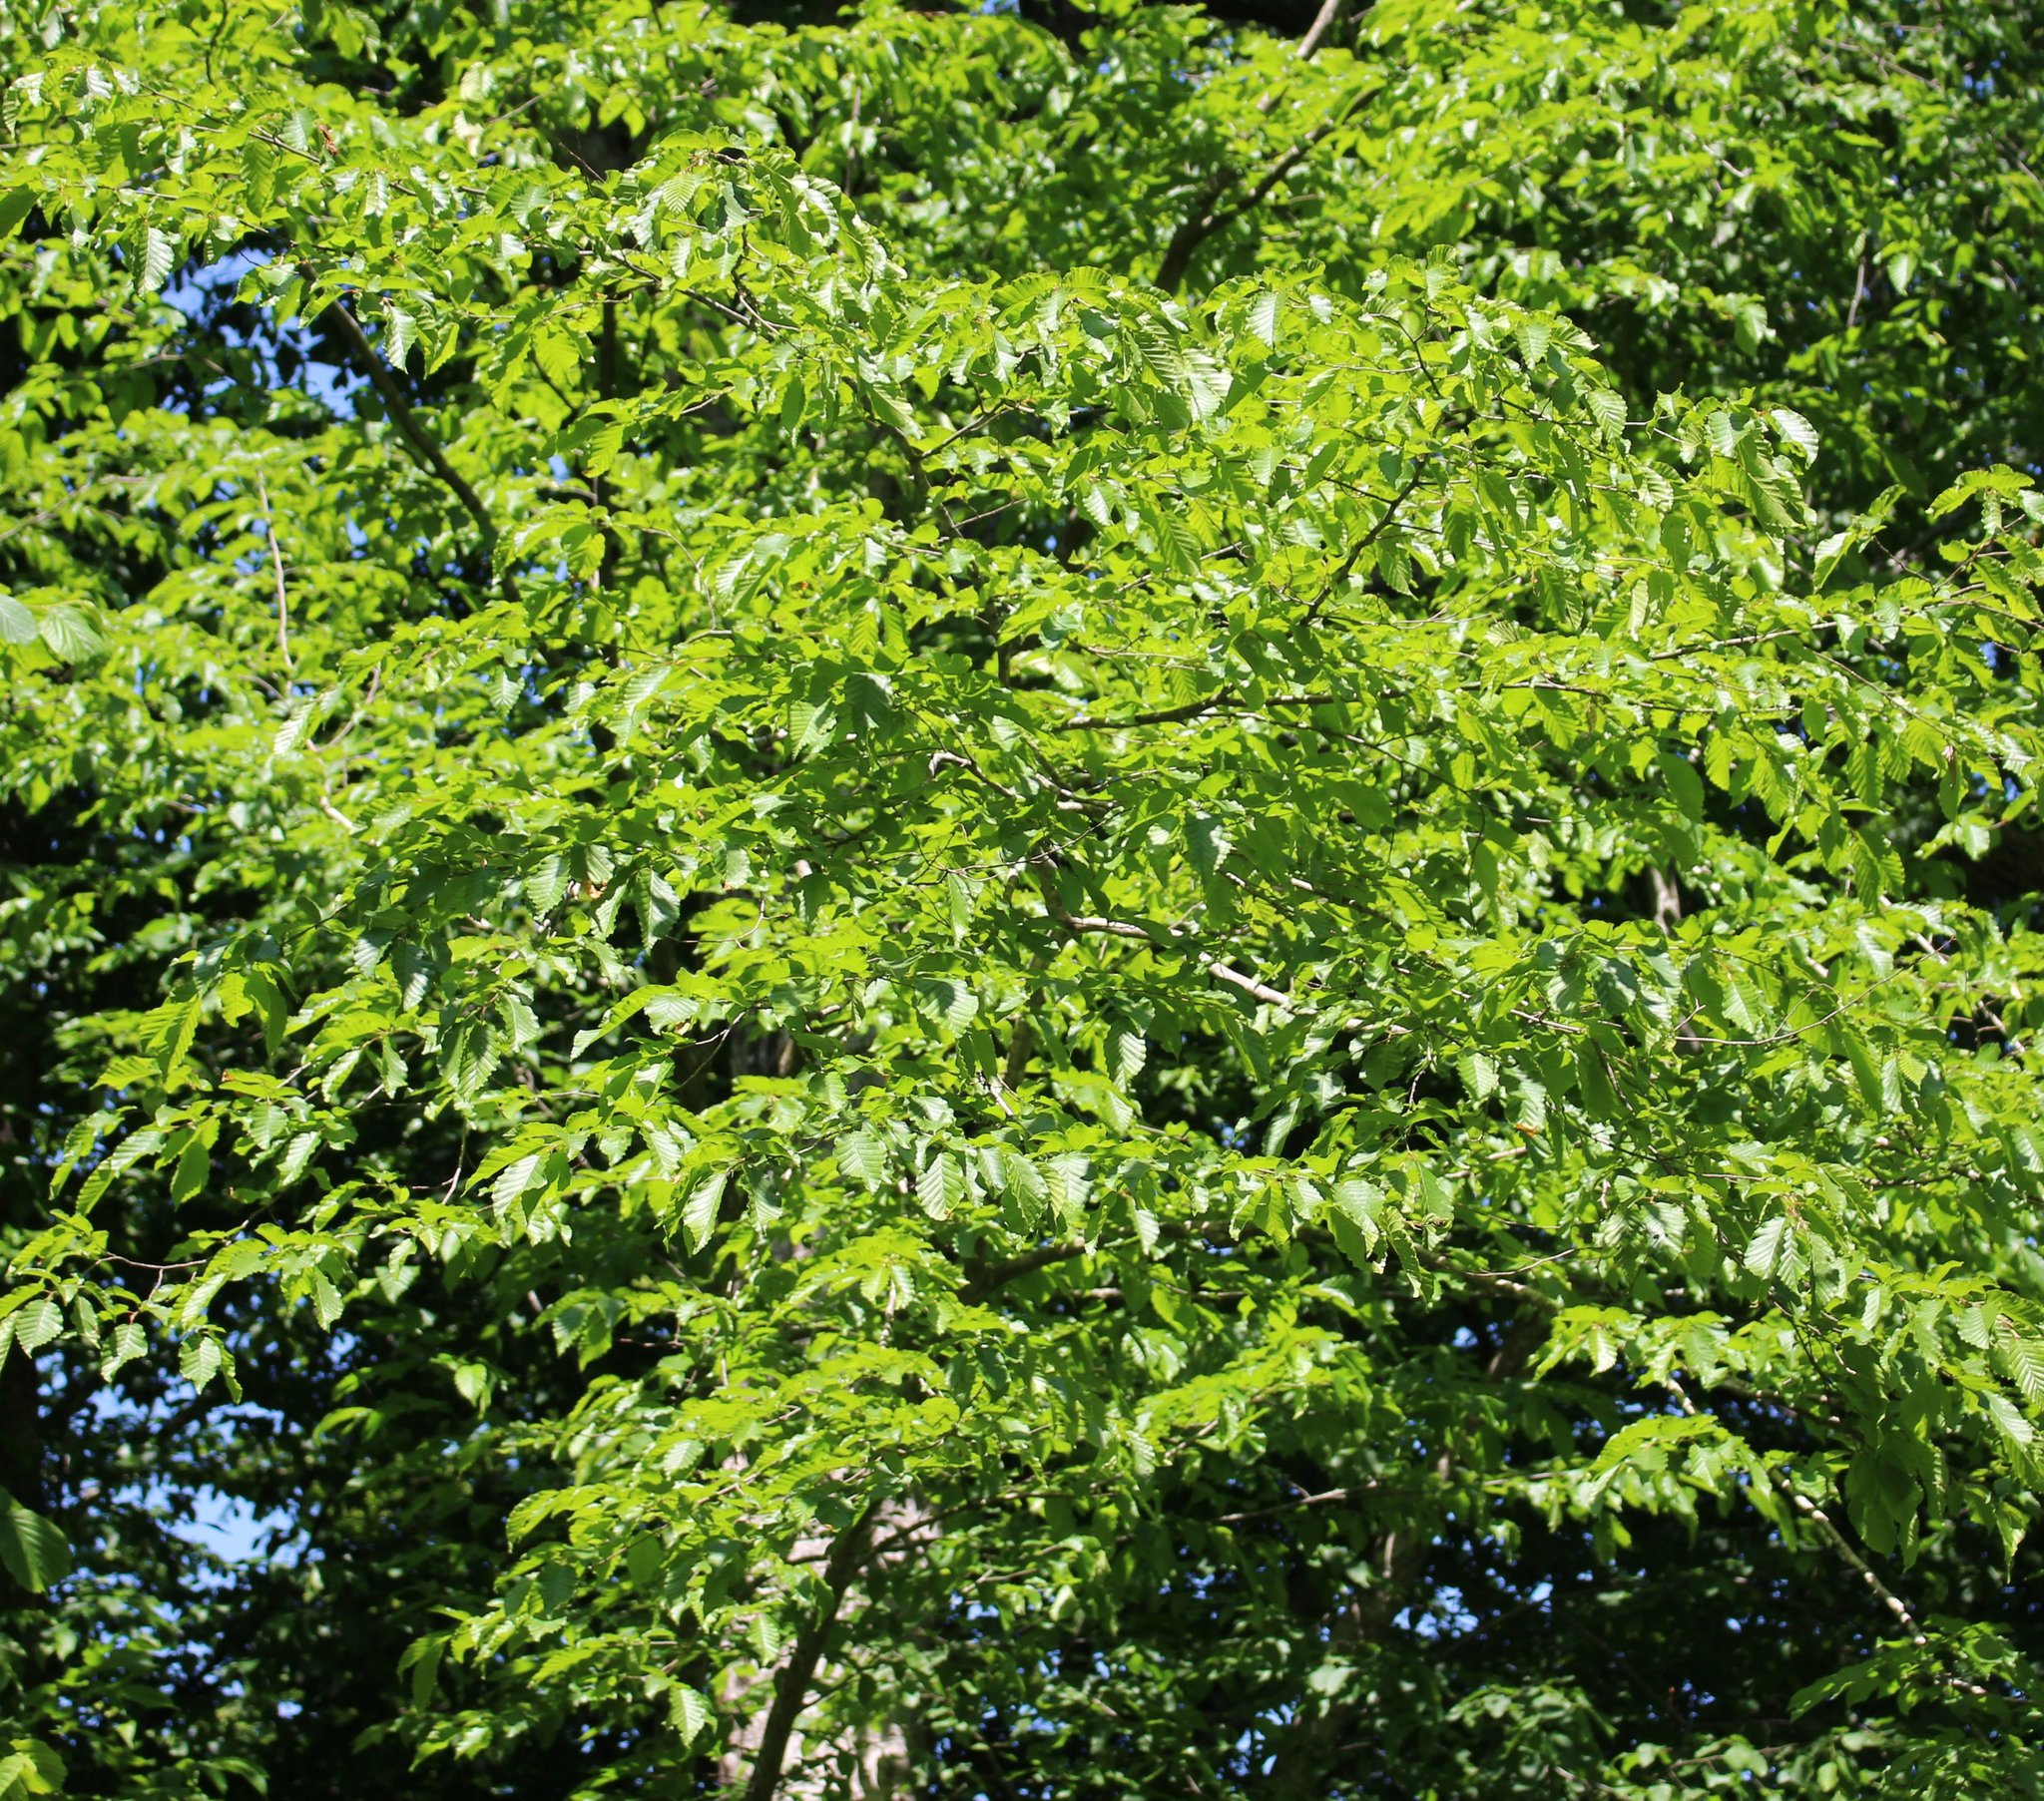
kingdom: Plantae
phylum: Tracheophyta
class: Magnoliopsida
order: Fagales
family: Betulaceae
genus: Carpinus
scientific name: Carpinus orientalis
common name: Eastern hornbeam
